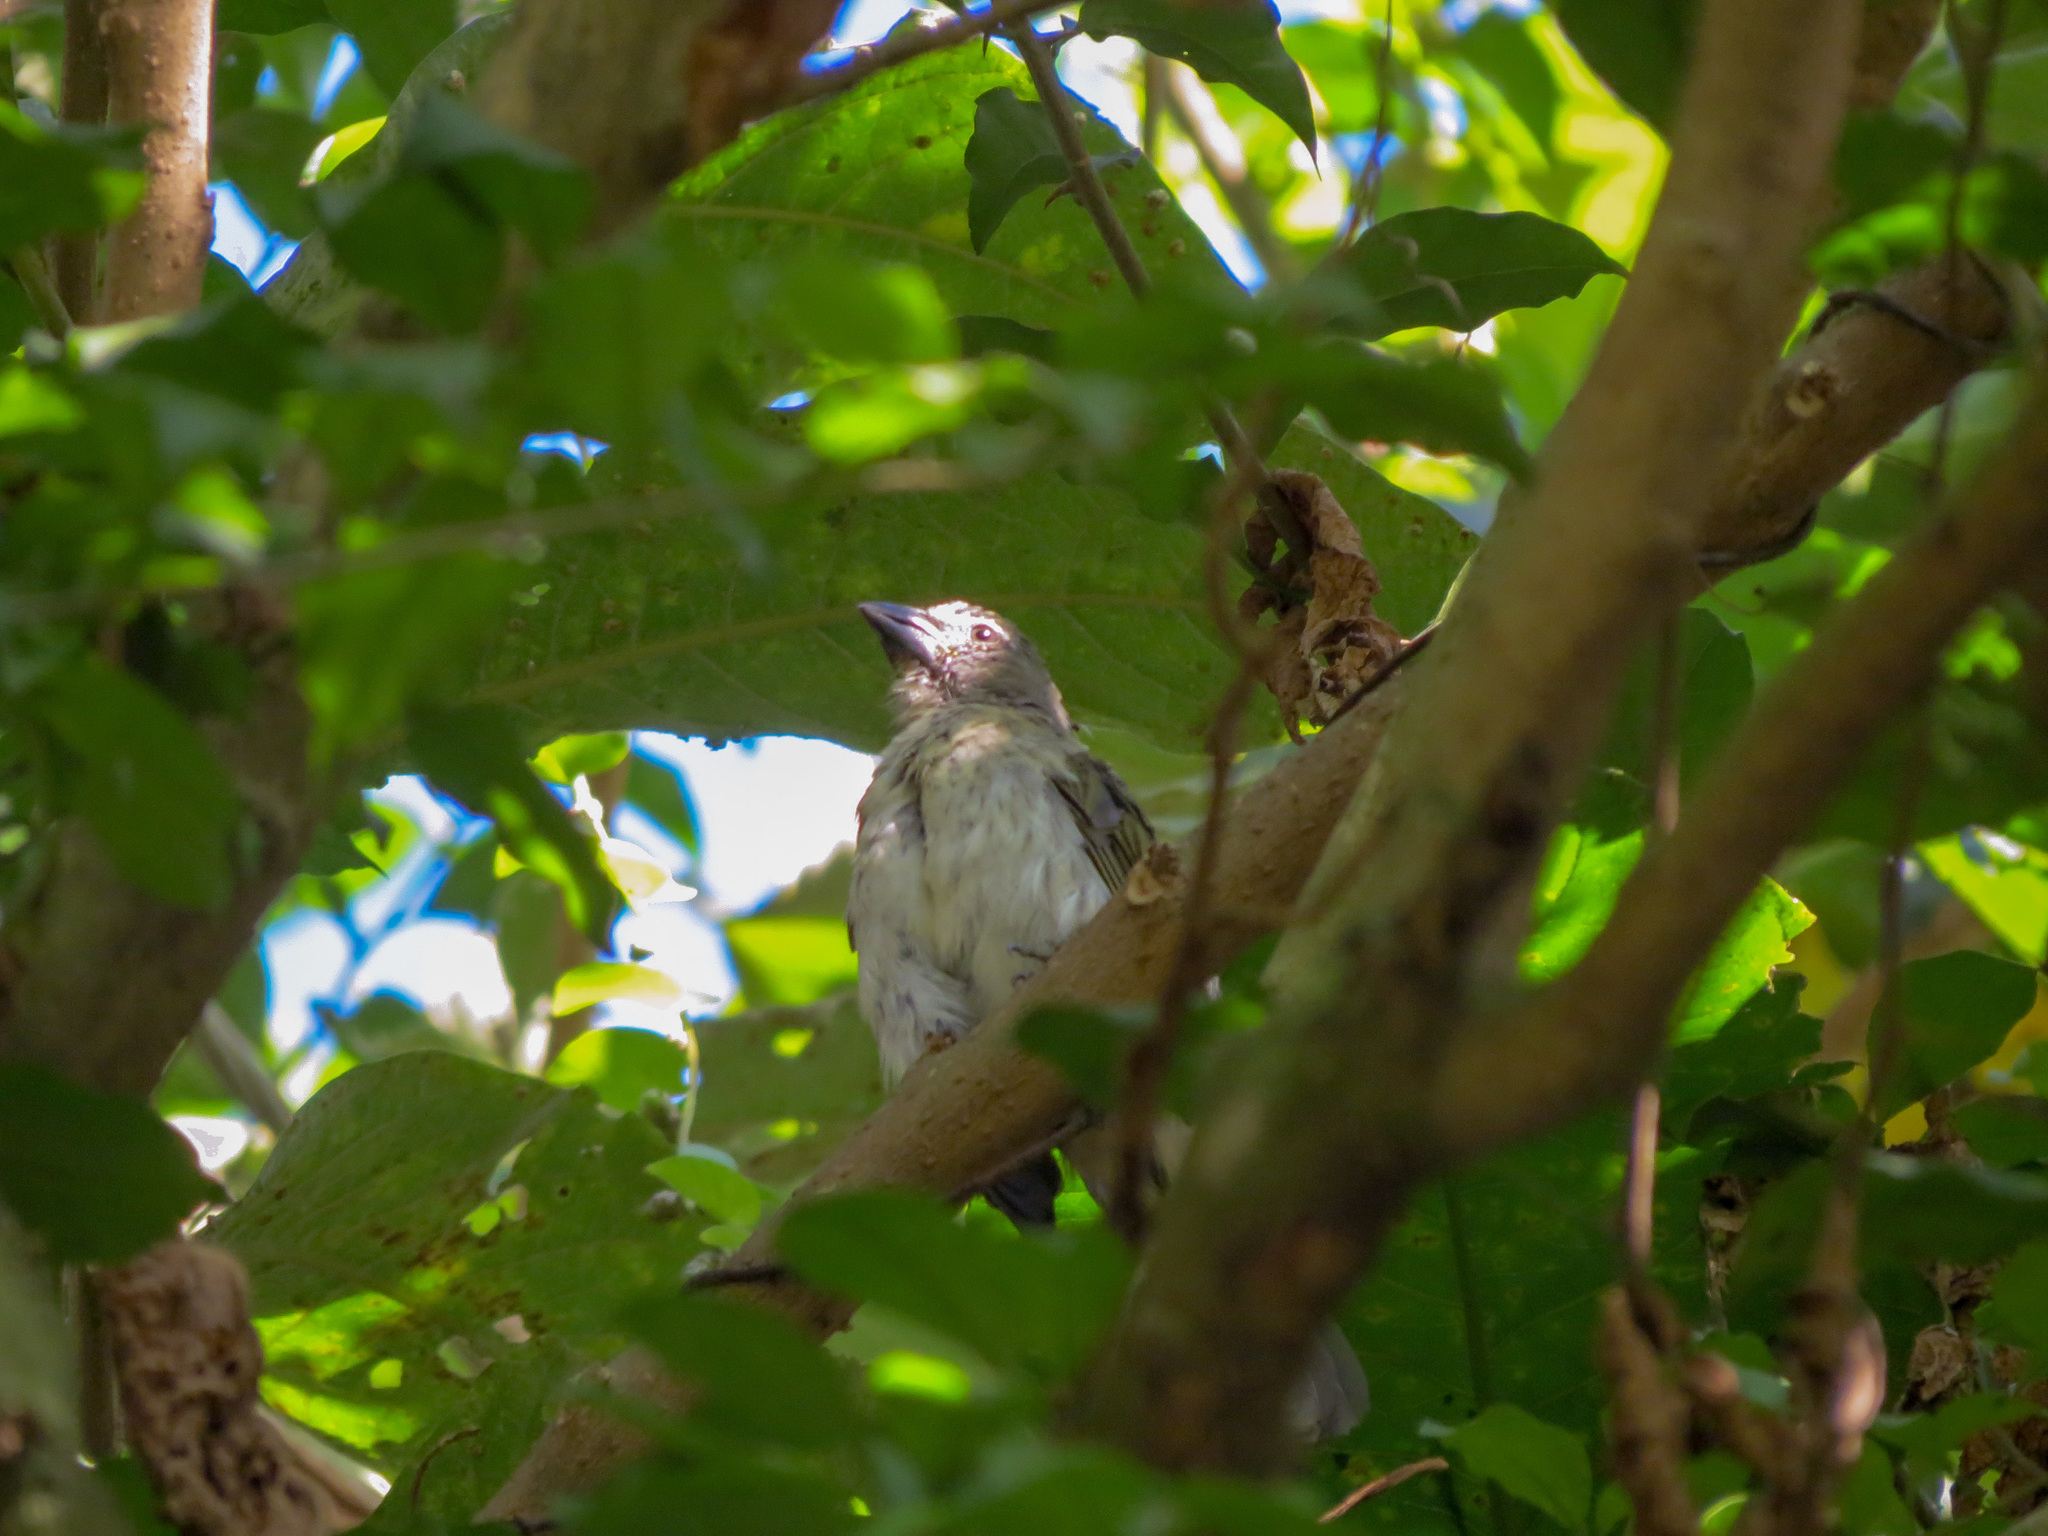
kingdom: Animalia
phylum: Chordata
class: Aves
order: Passeriformes
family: Thraupidae
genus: Saltator
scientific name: Saltator striatipectus
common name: Streaked saltator
